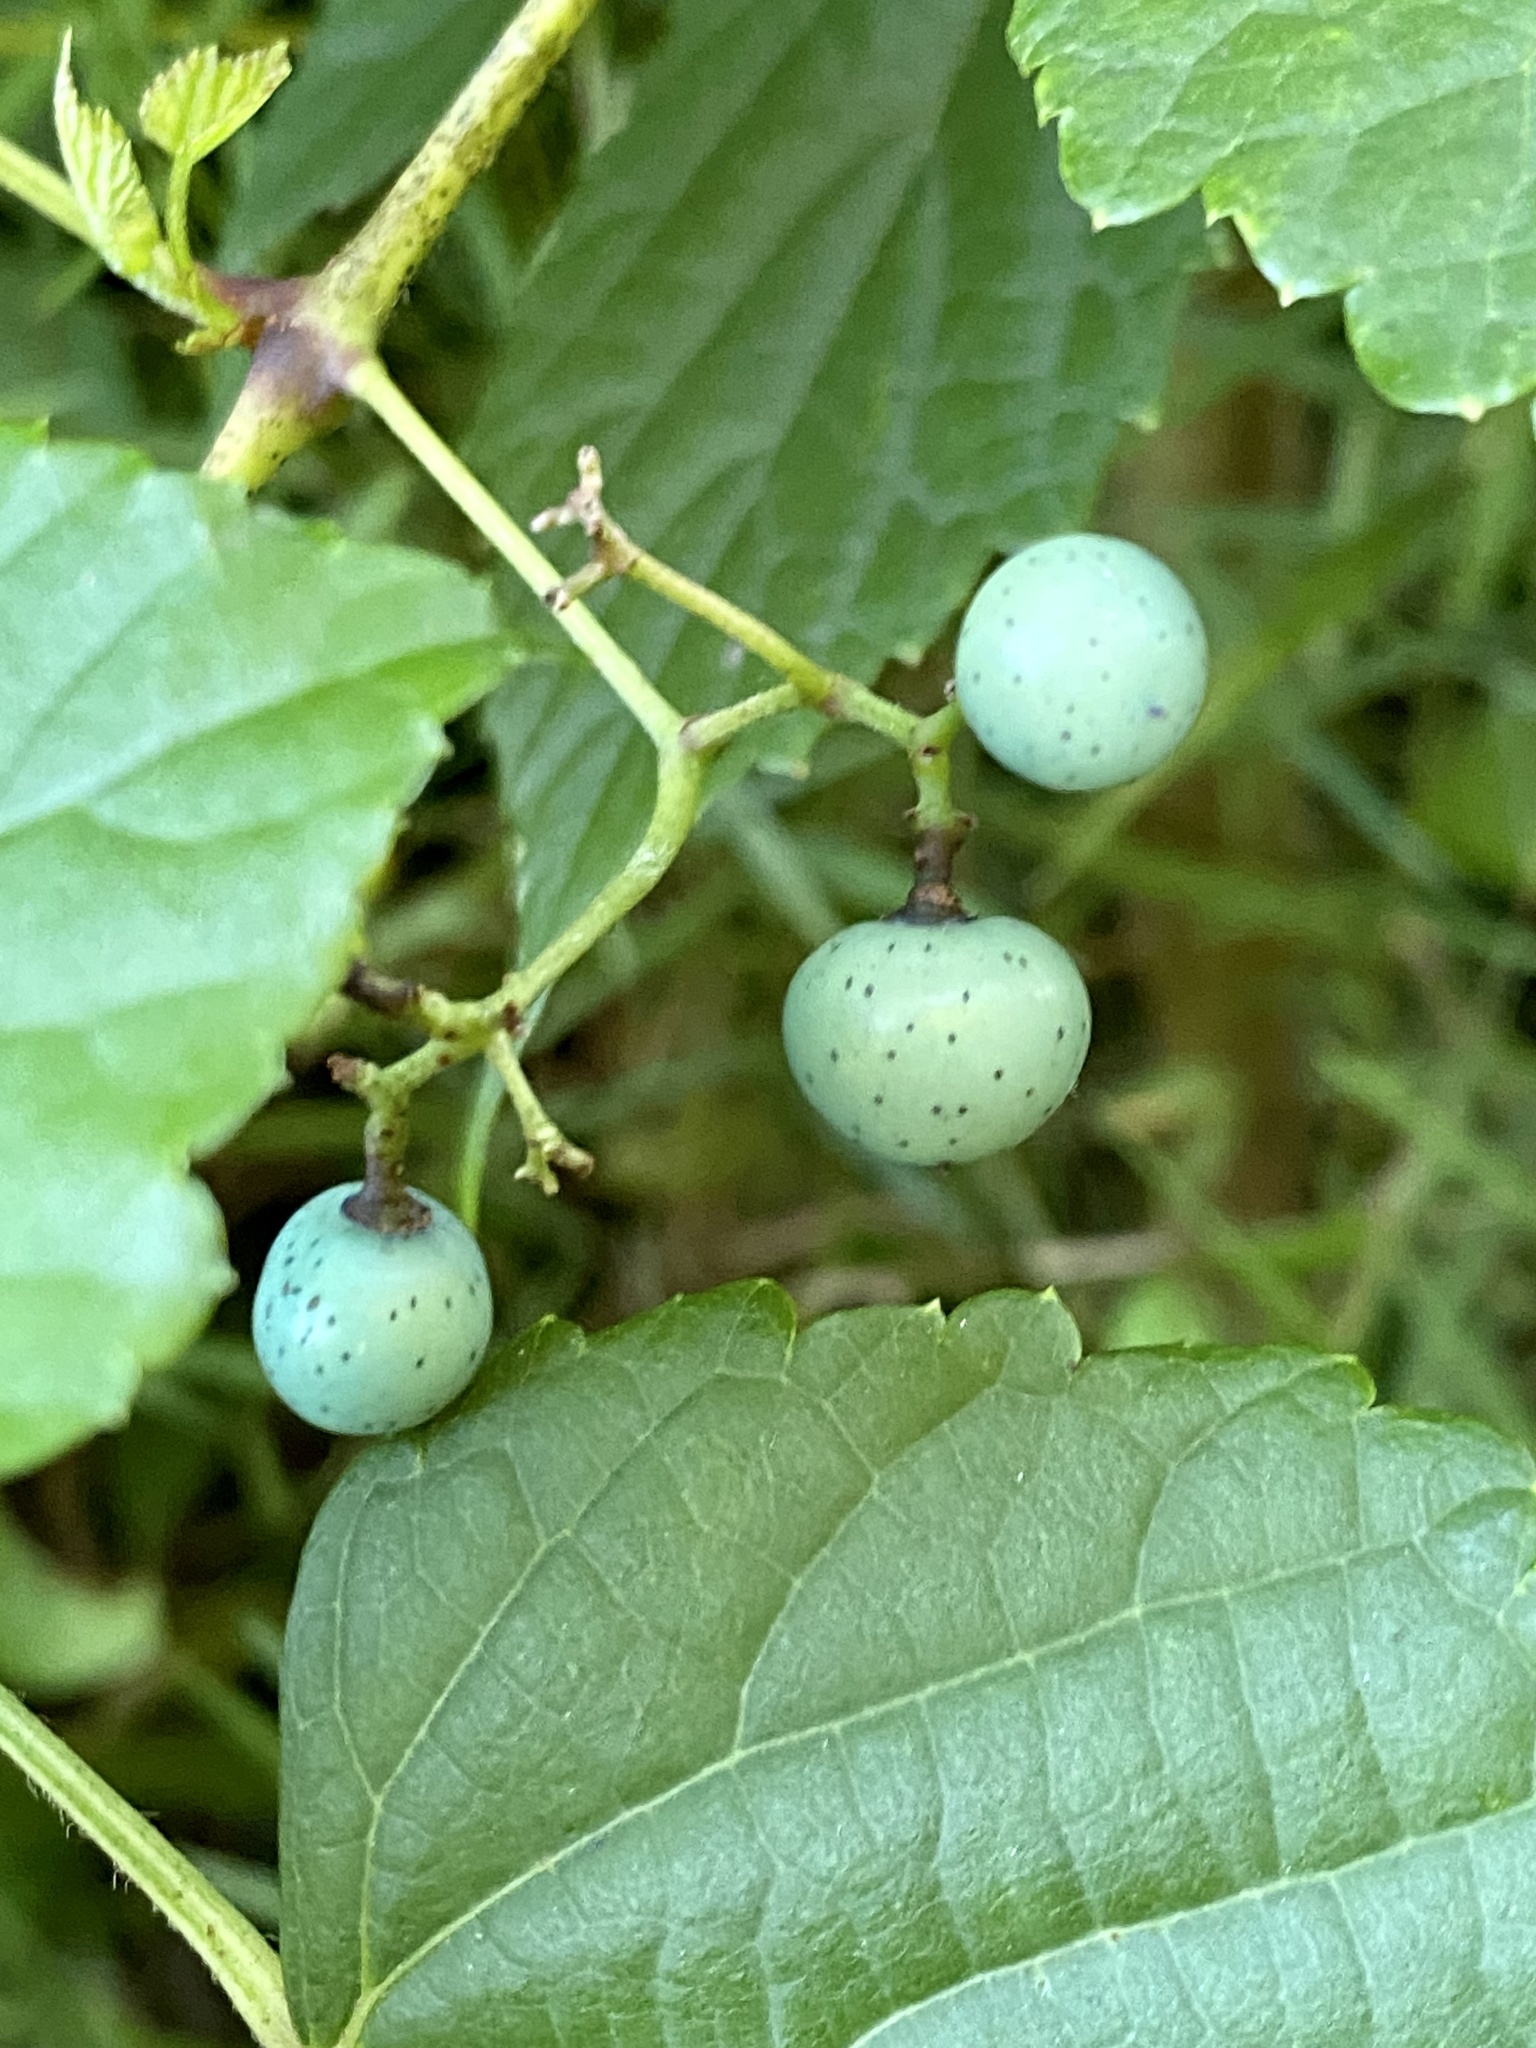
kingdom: Plantae
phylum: Tracheophyta
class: Magnoliopsida
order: Vitales
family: Vitaceae
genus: Ampelopsis
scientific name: Ampelopsis glandulosa
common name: Amur peppervine
